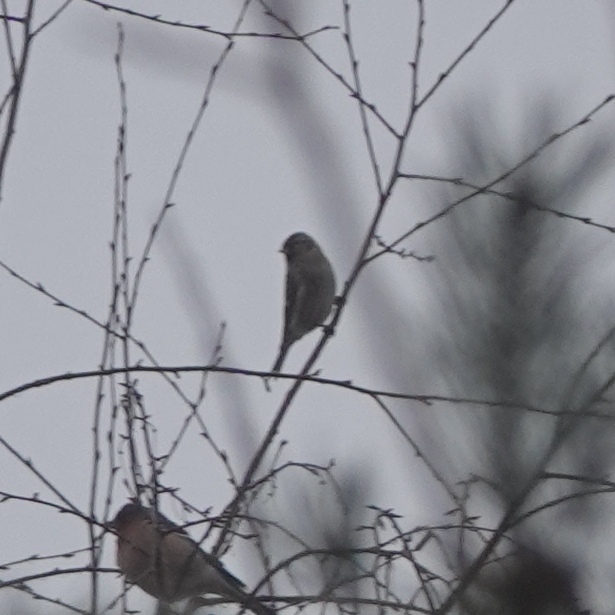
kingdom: Animalia
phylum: Chordata
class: Aves
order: Passeriformes
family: Fringillidae
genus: Acanthis
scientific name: Acanthis flammea
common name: Common redpoll
